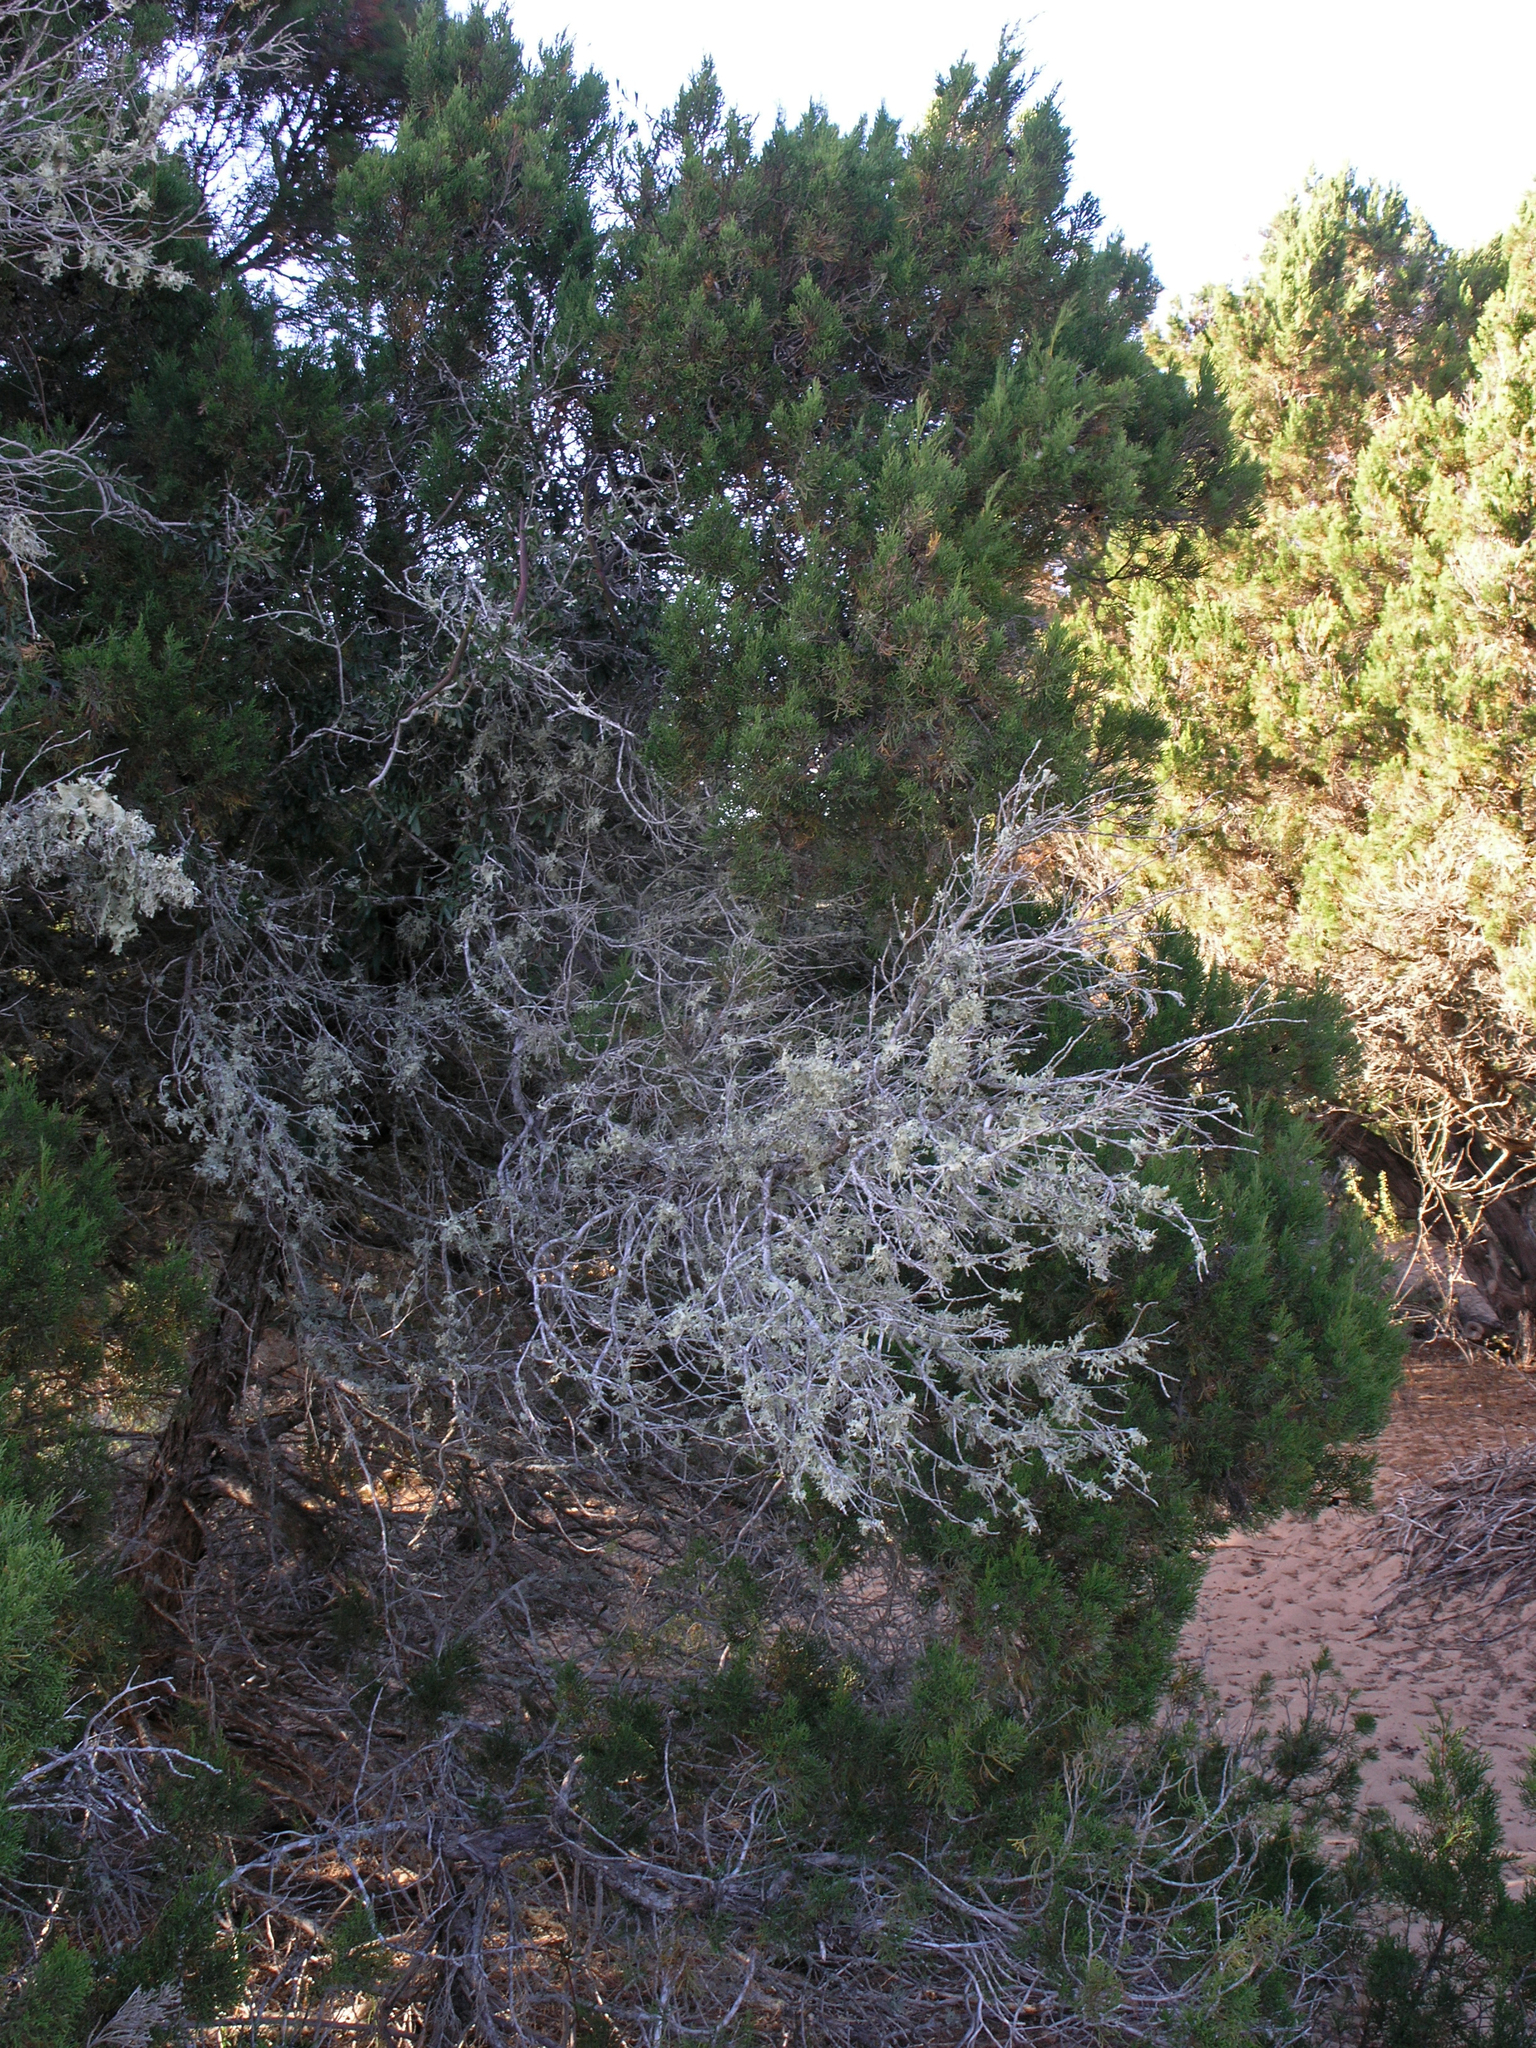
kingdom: Plantae
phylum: Tracheophyta
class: Pinopsida
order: Pinales
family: Cupressaceae
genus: Juniperus
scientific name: Juniperus phoenicea
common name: Phoenician juniper
